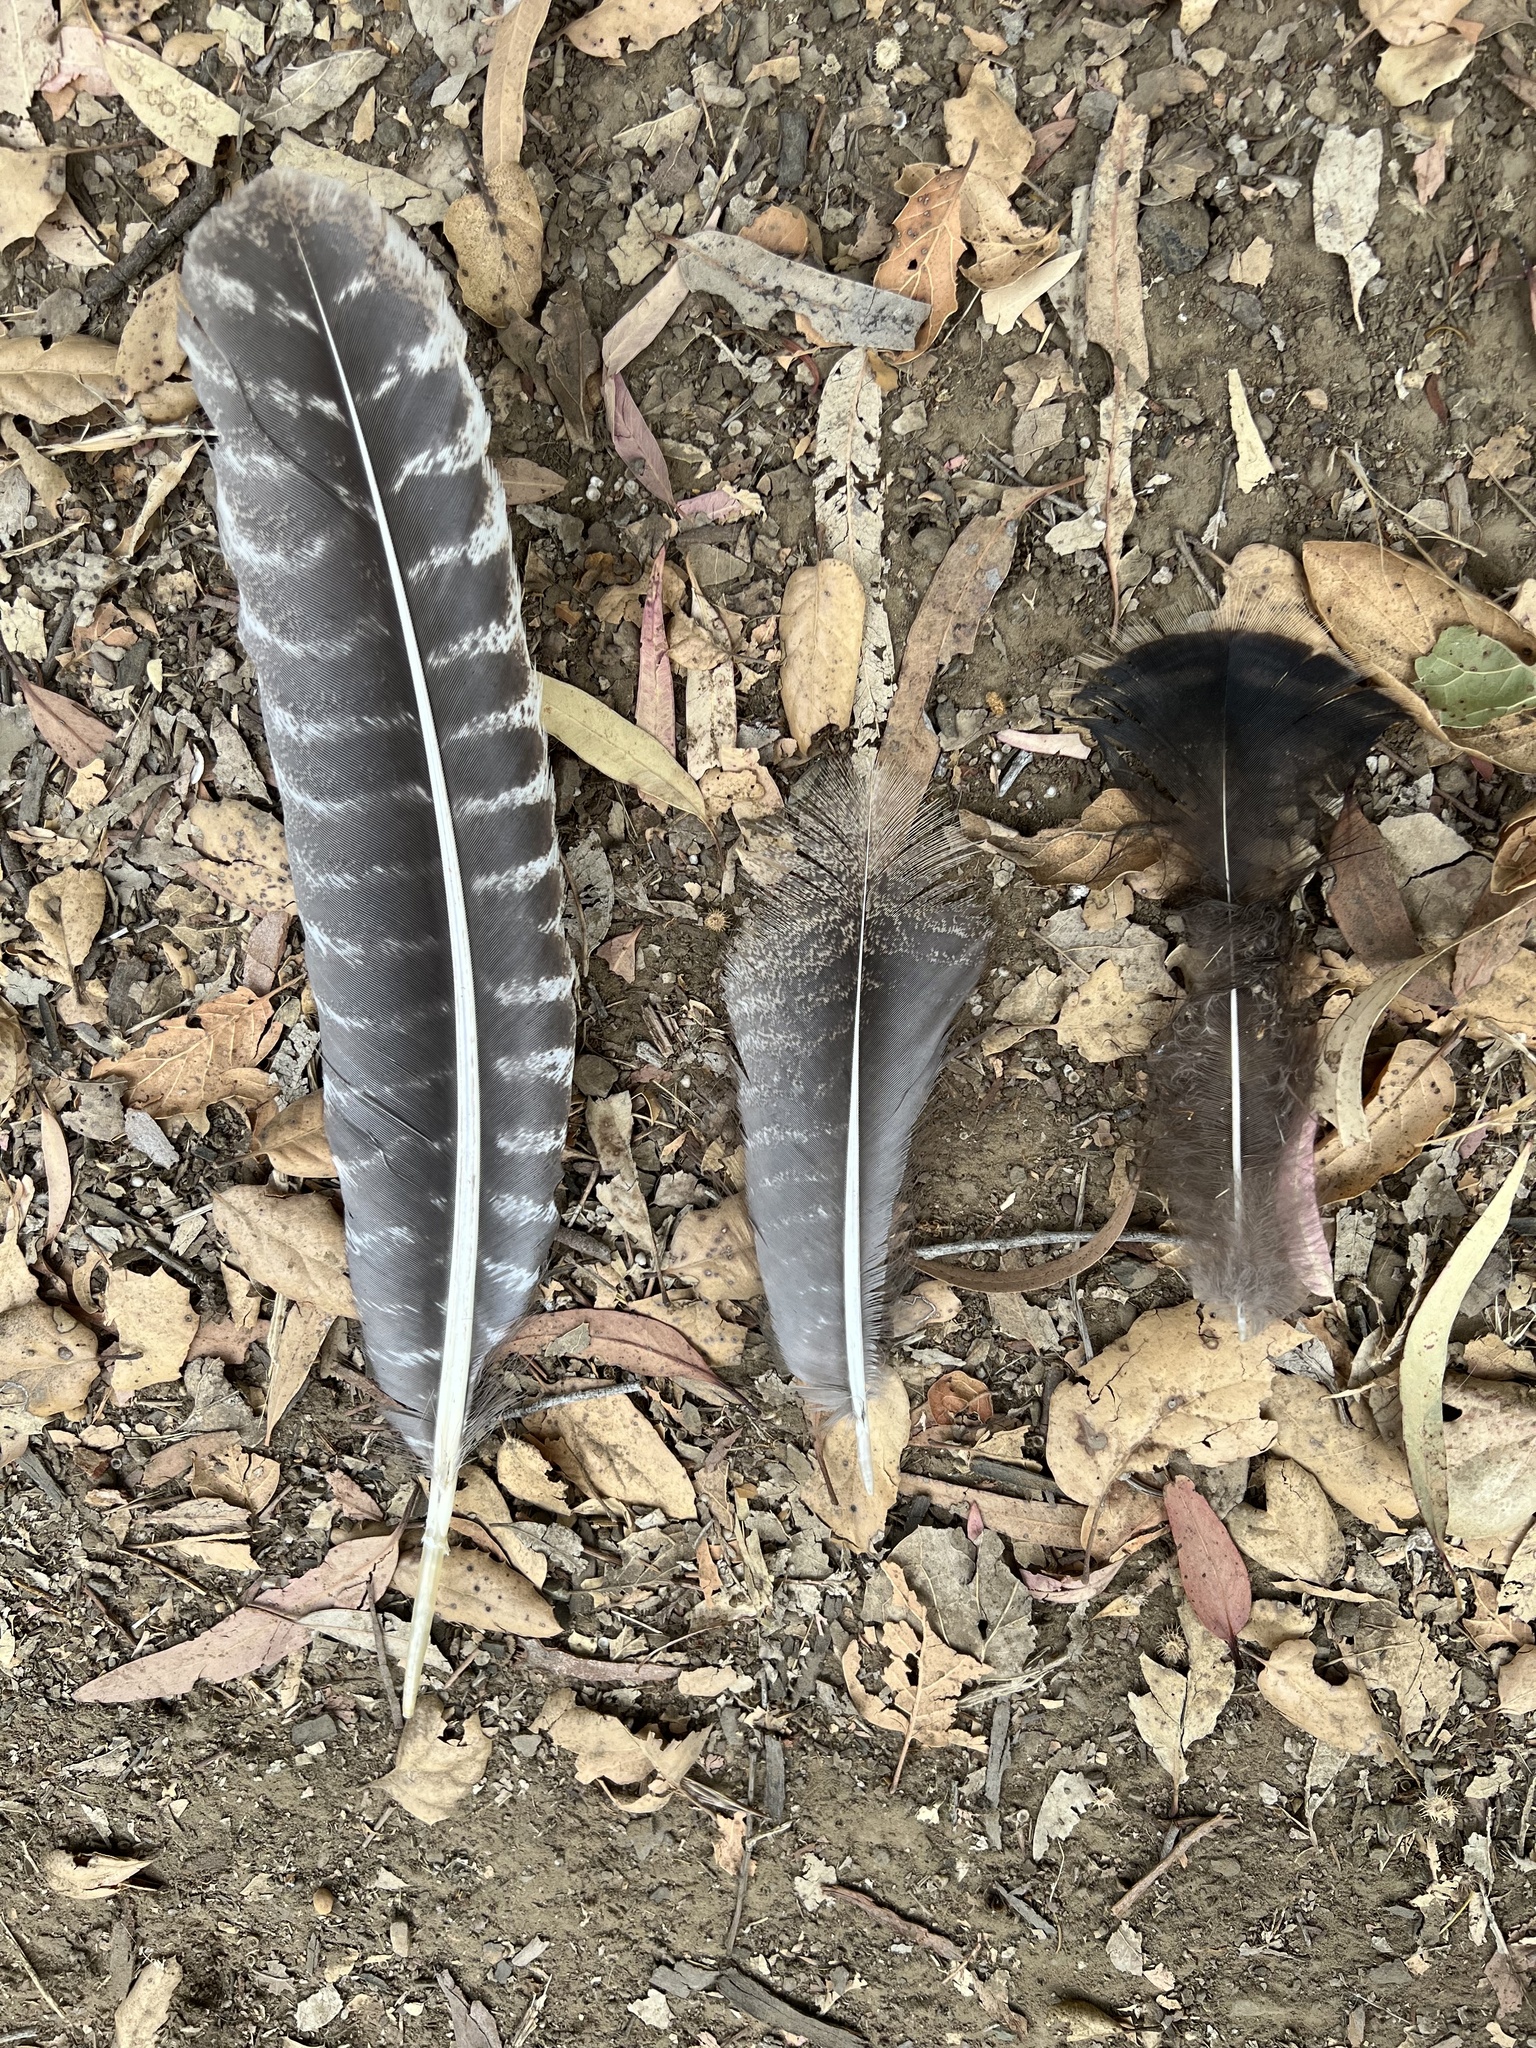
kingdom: Animalia
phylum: Chordata
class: Aves
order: Galliformes
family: Phasianidae
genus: Meleagris
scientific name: Meleagris gallopavo
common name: Wild turkey
